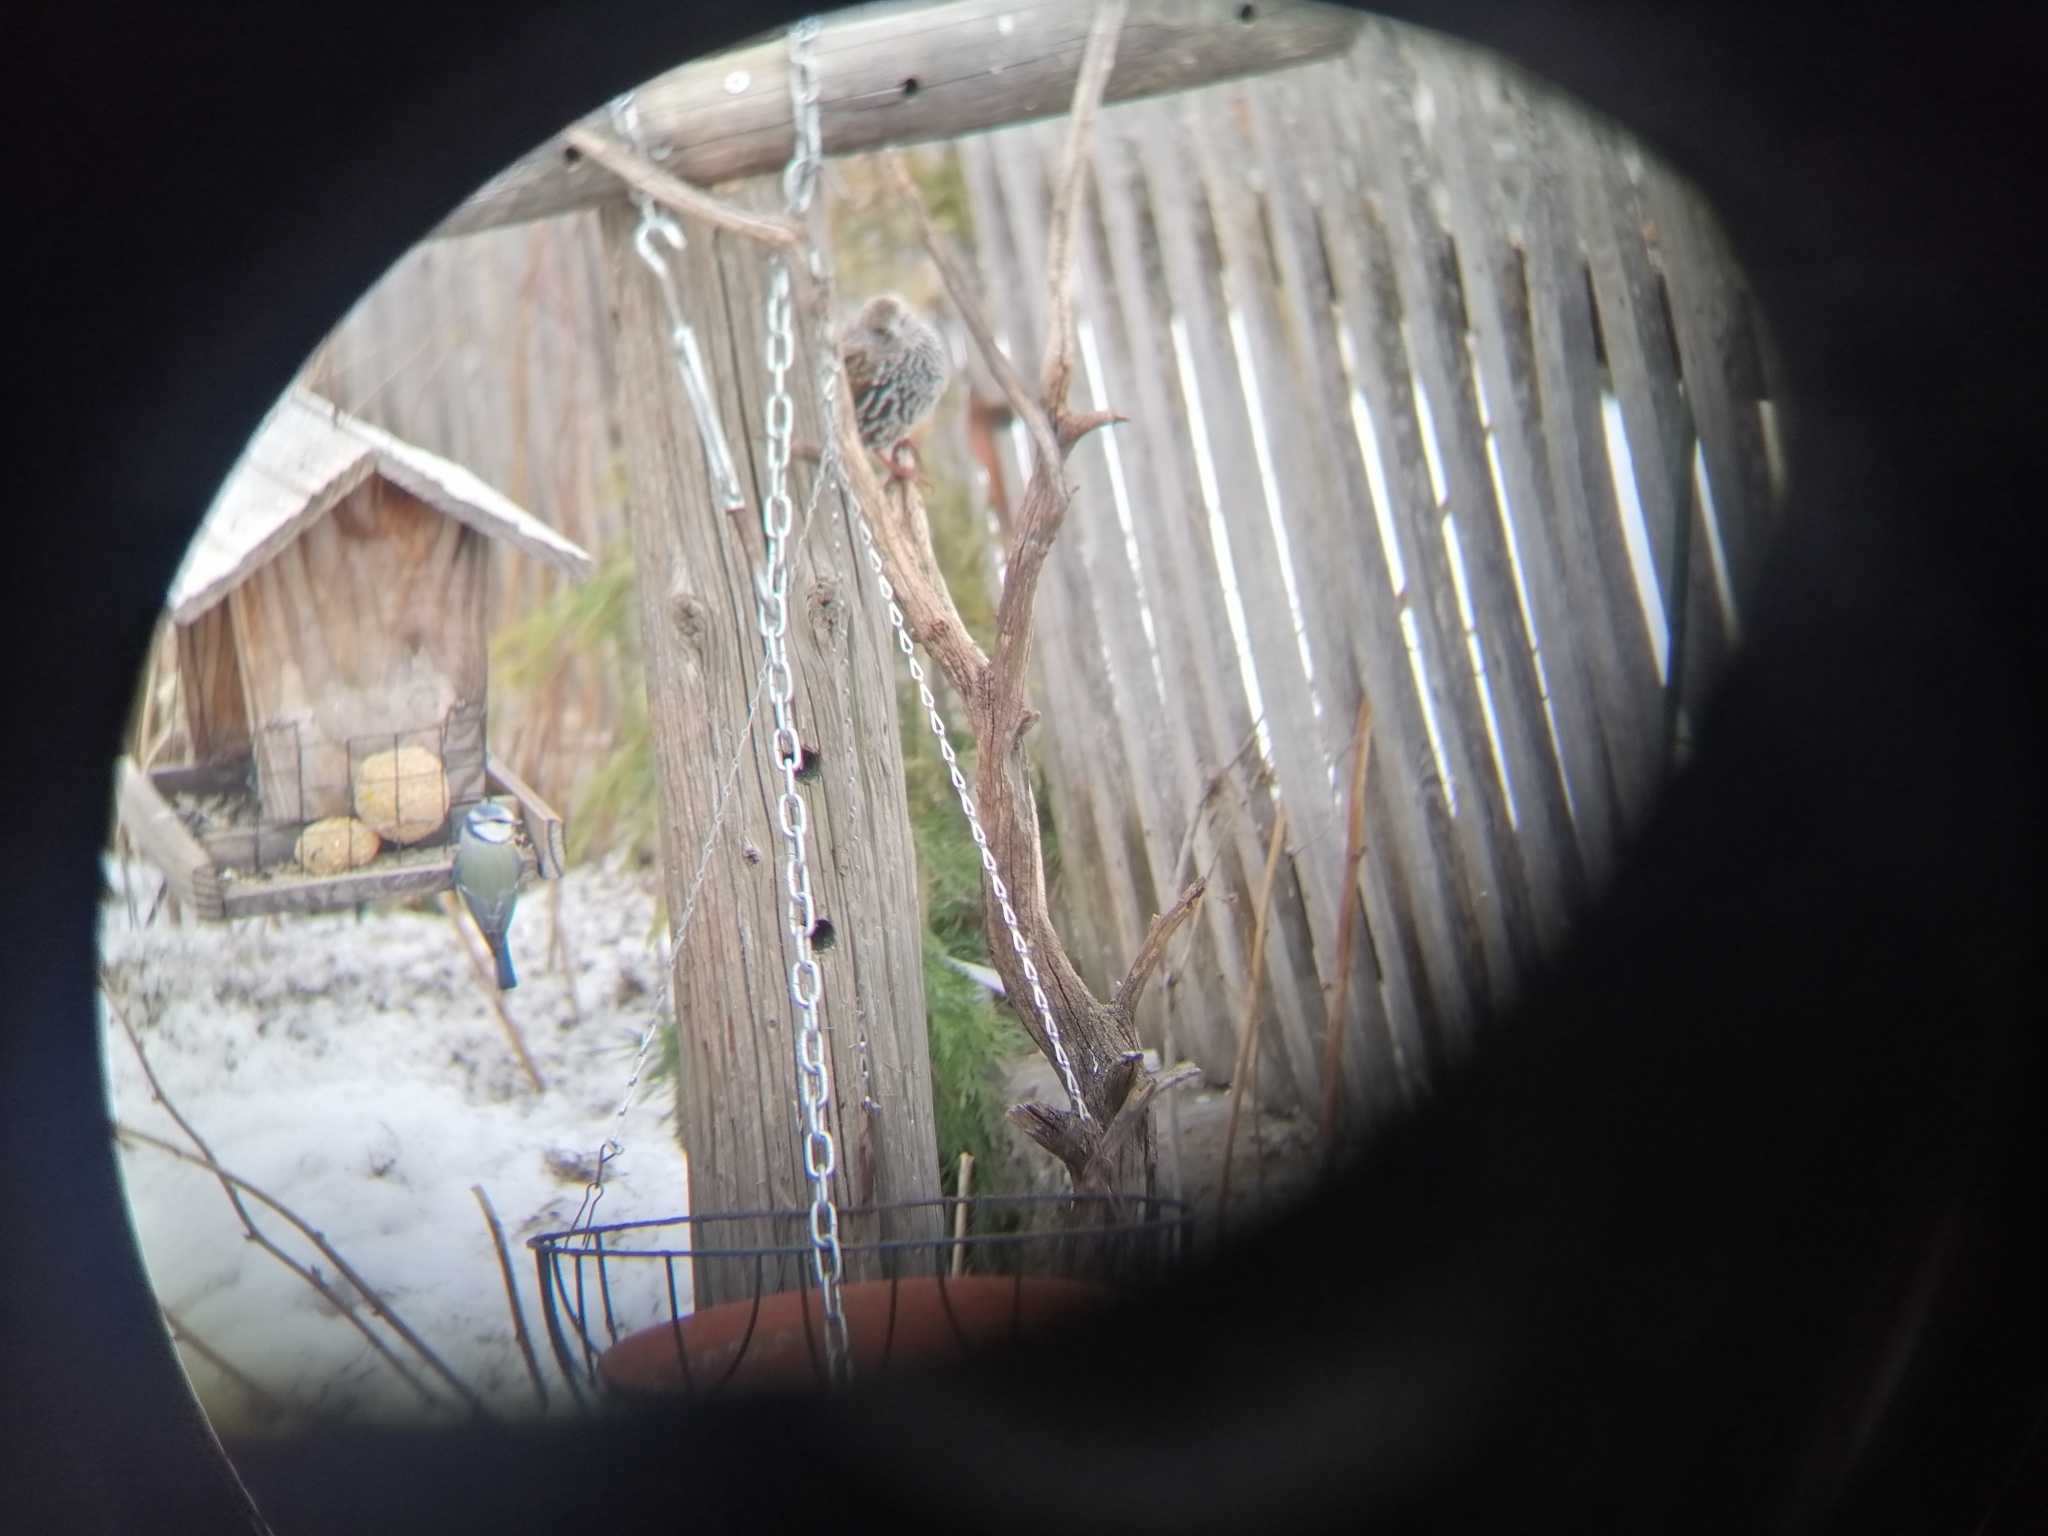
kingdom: Animalia
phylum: Chordata
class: Aves
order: Passeriformes
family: Paridae
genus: Cyanistes
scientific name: Cyanistes caeruleus
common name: Eurasian blue tit
